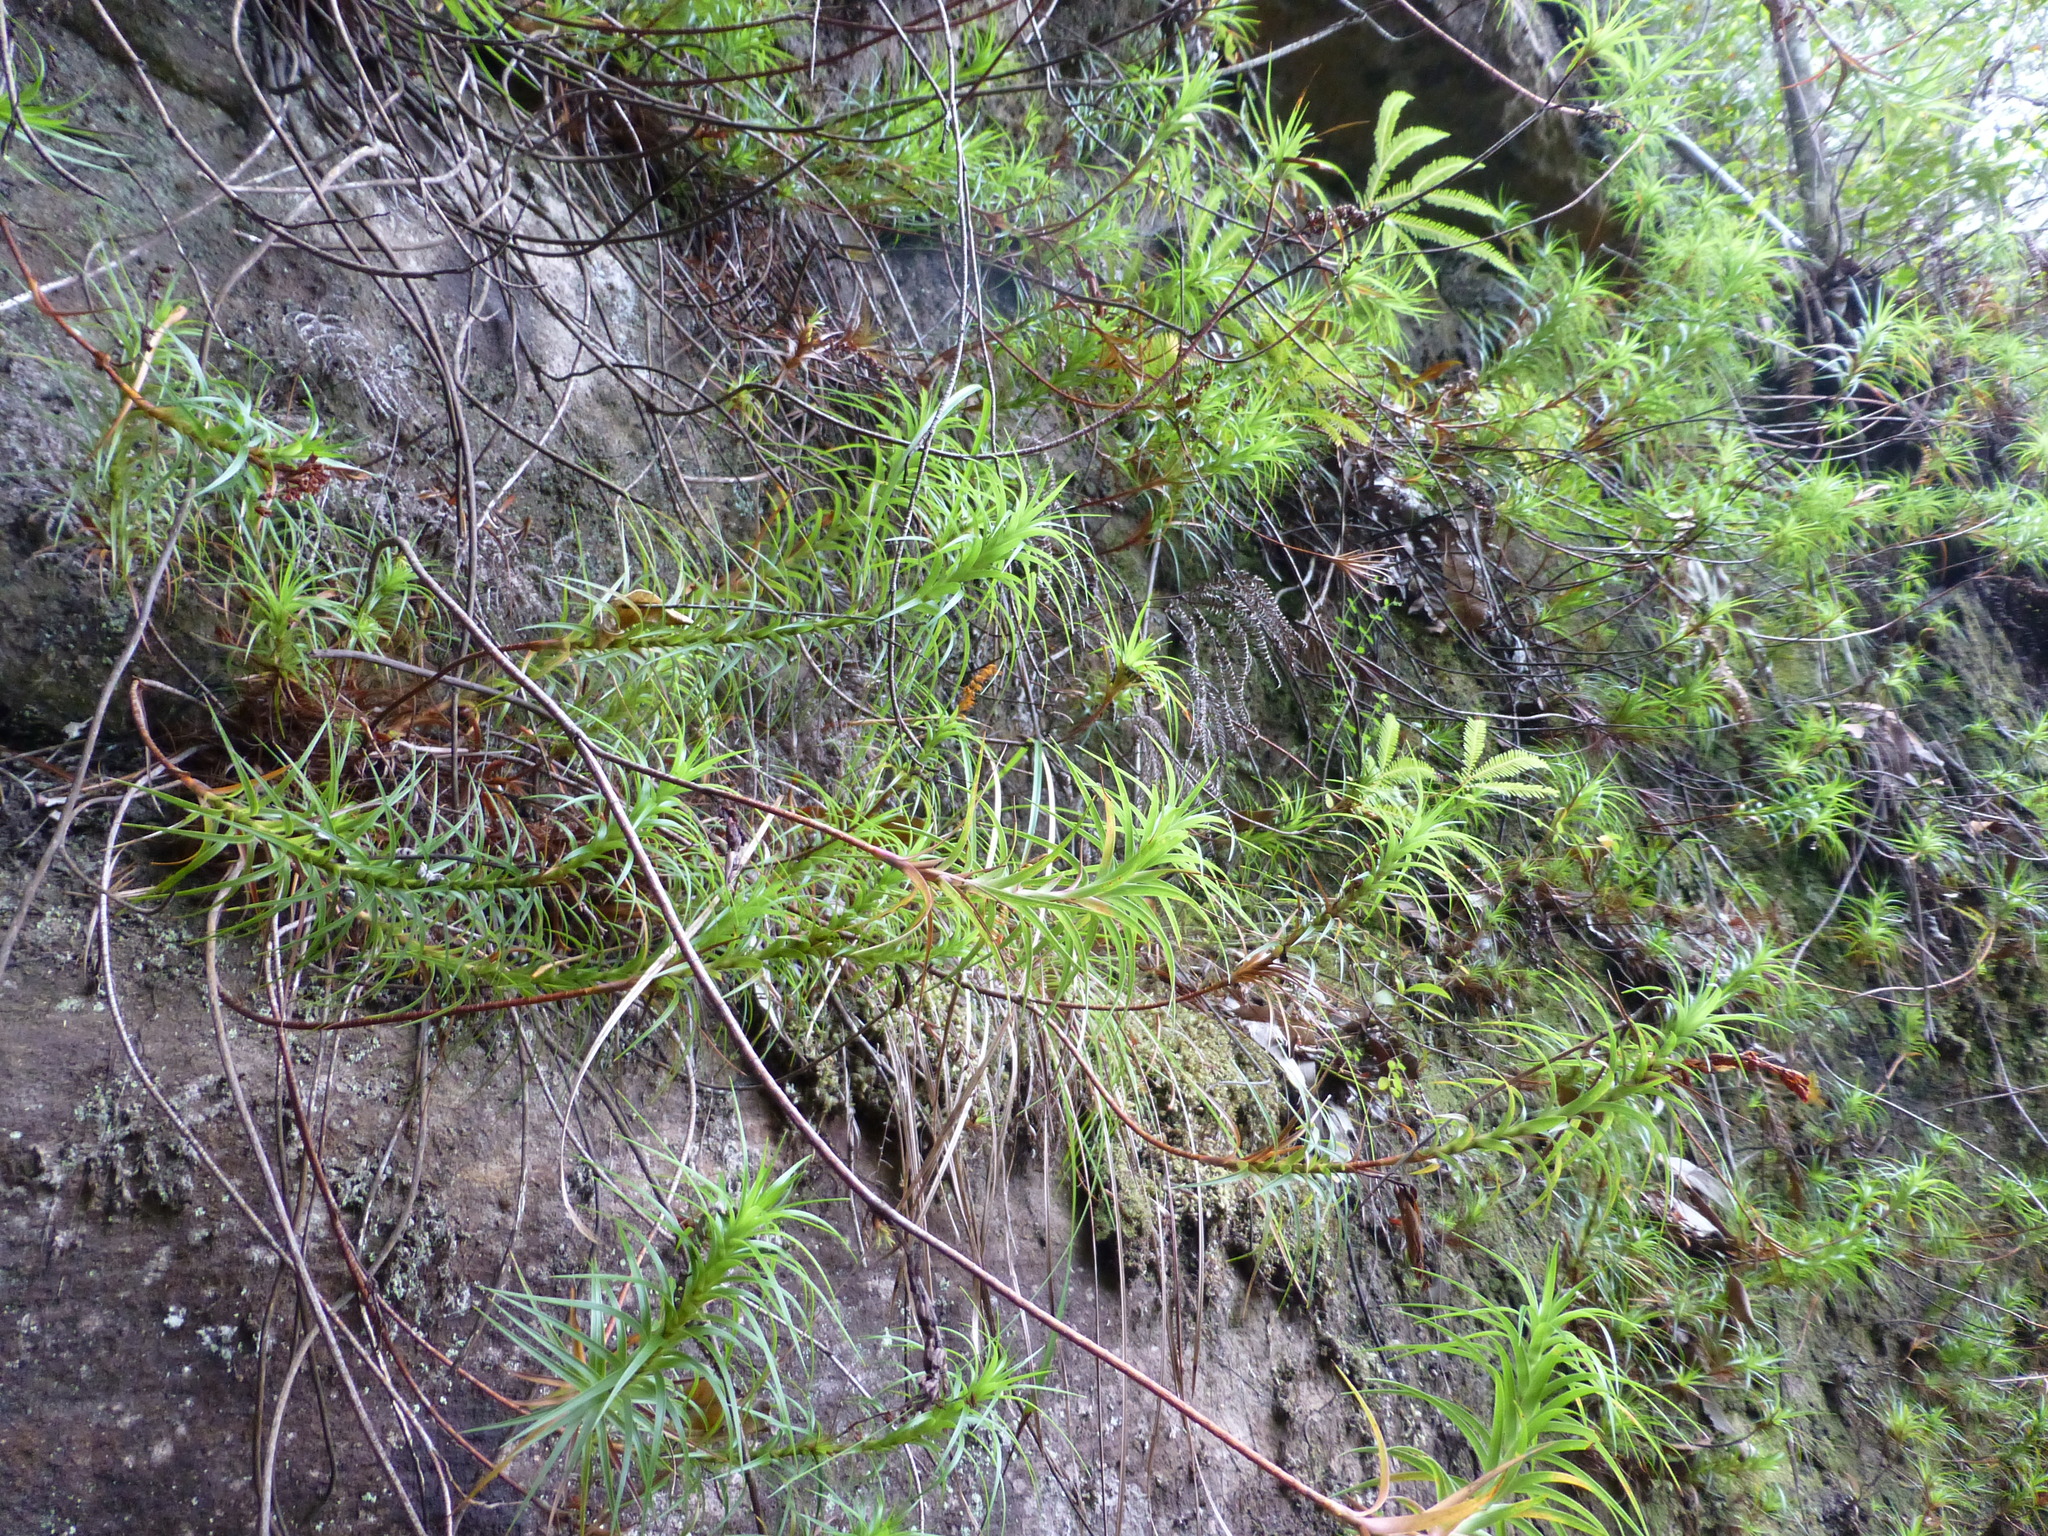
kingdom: Plantae
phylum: Tracheophyta
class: Magnoliopsida
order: Ericales
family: Ericaceae
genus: Dracophyllum
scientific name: Dracophyllum secundum
